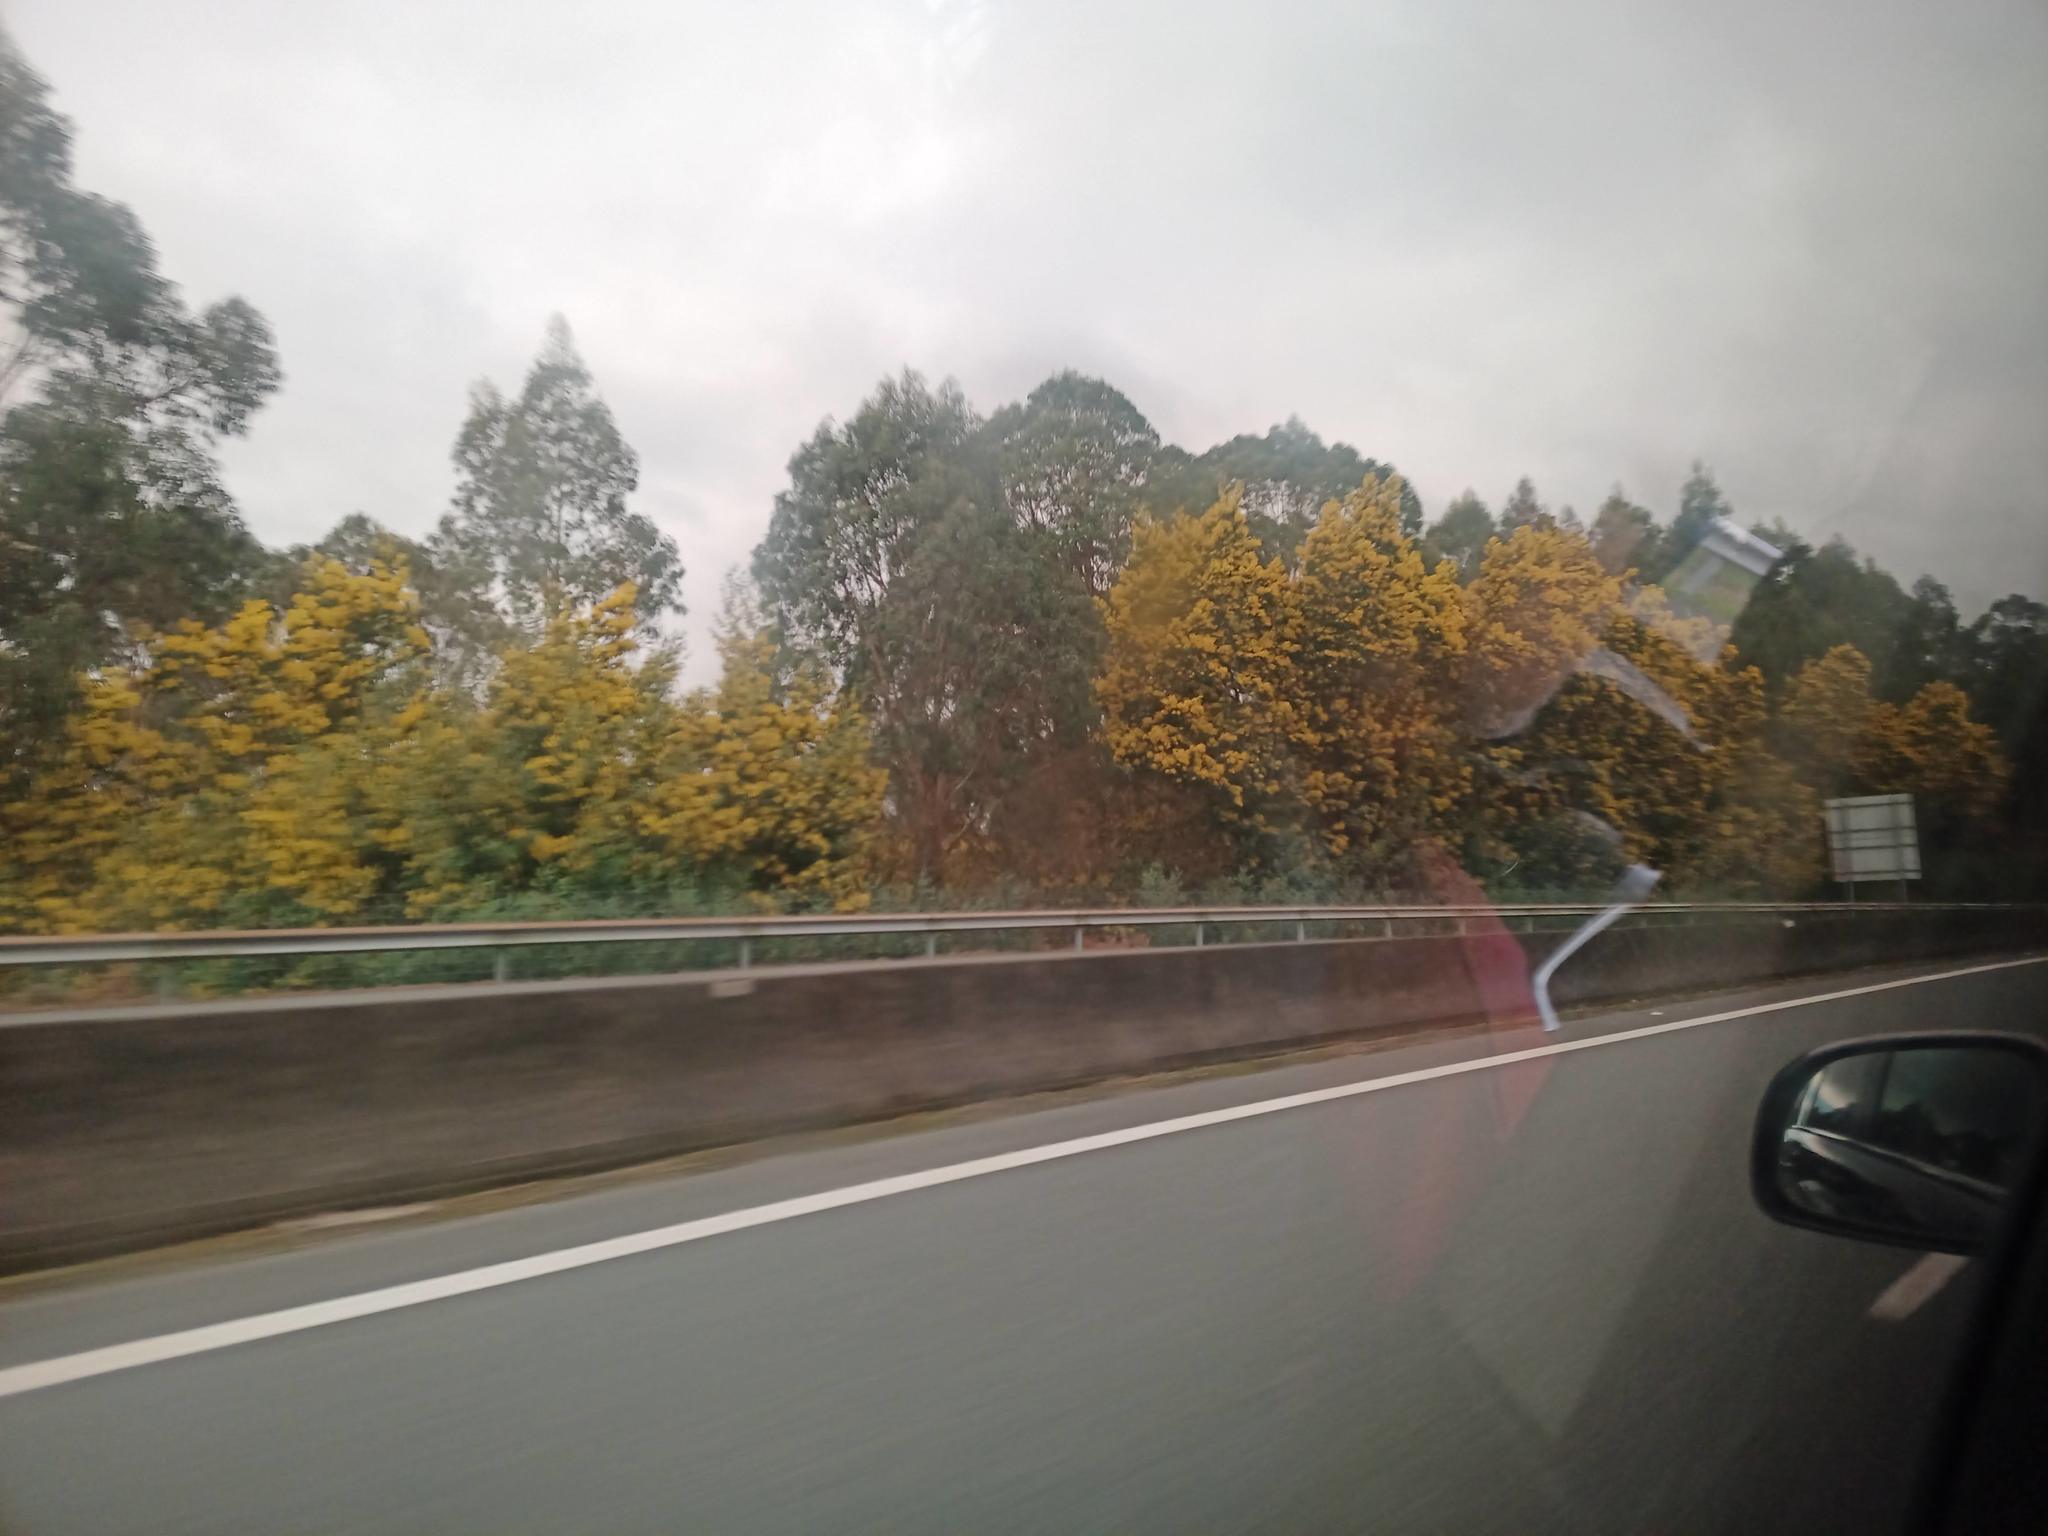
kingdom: Plantae
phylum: Tracheophyta
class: Magnoliopsida
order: Fabales
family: Fabaceae
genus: Acacia
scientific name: Acacia dealbata
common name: Silver wattle
